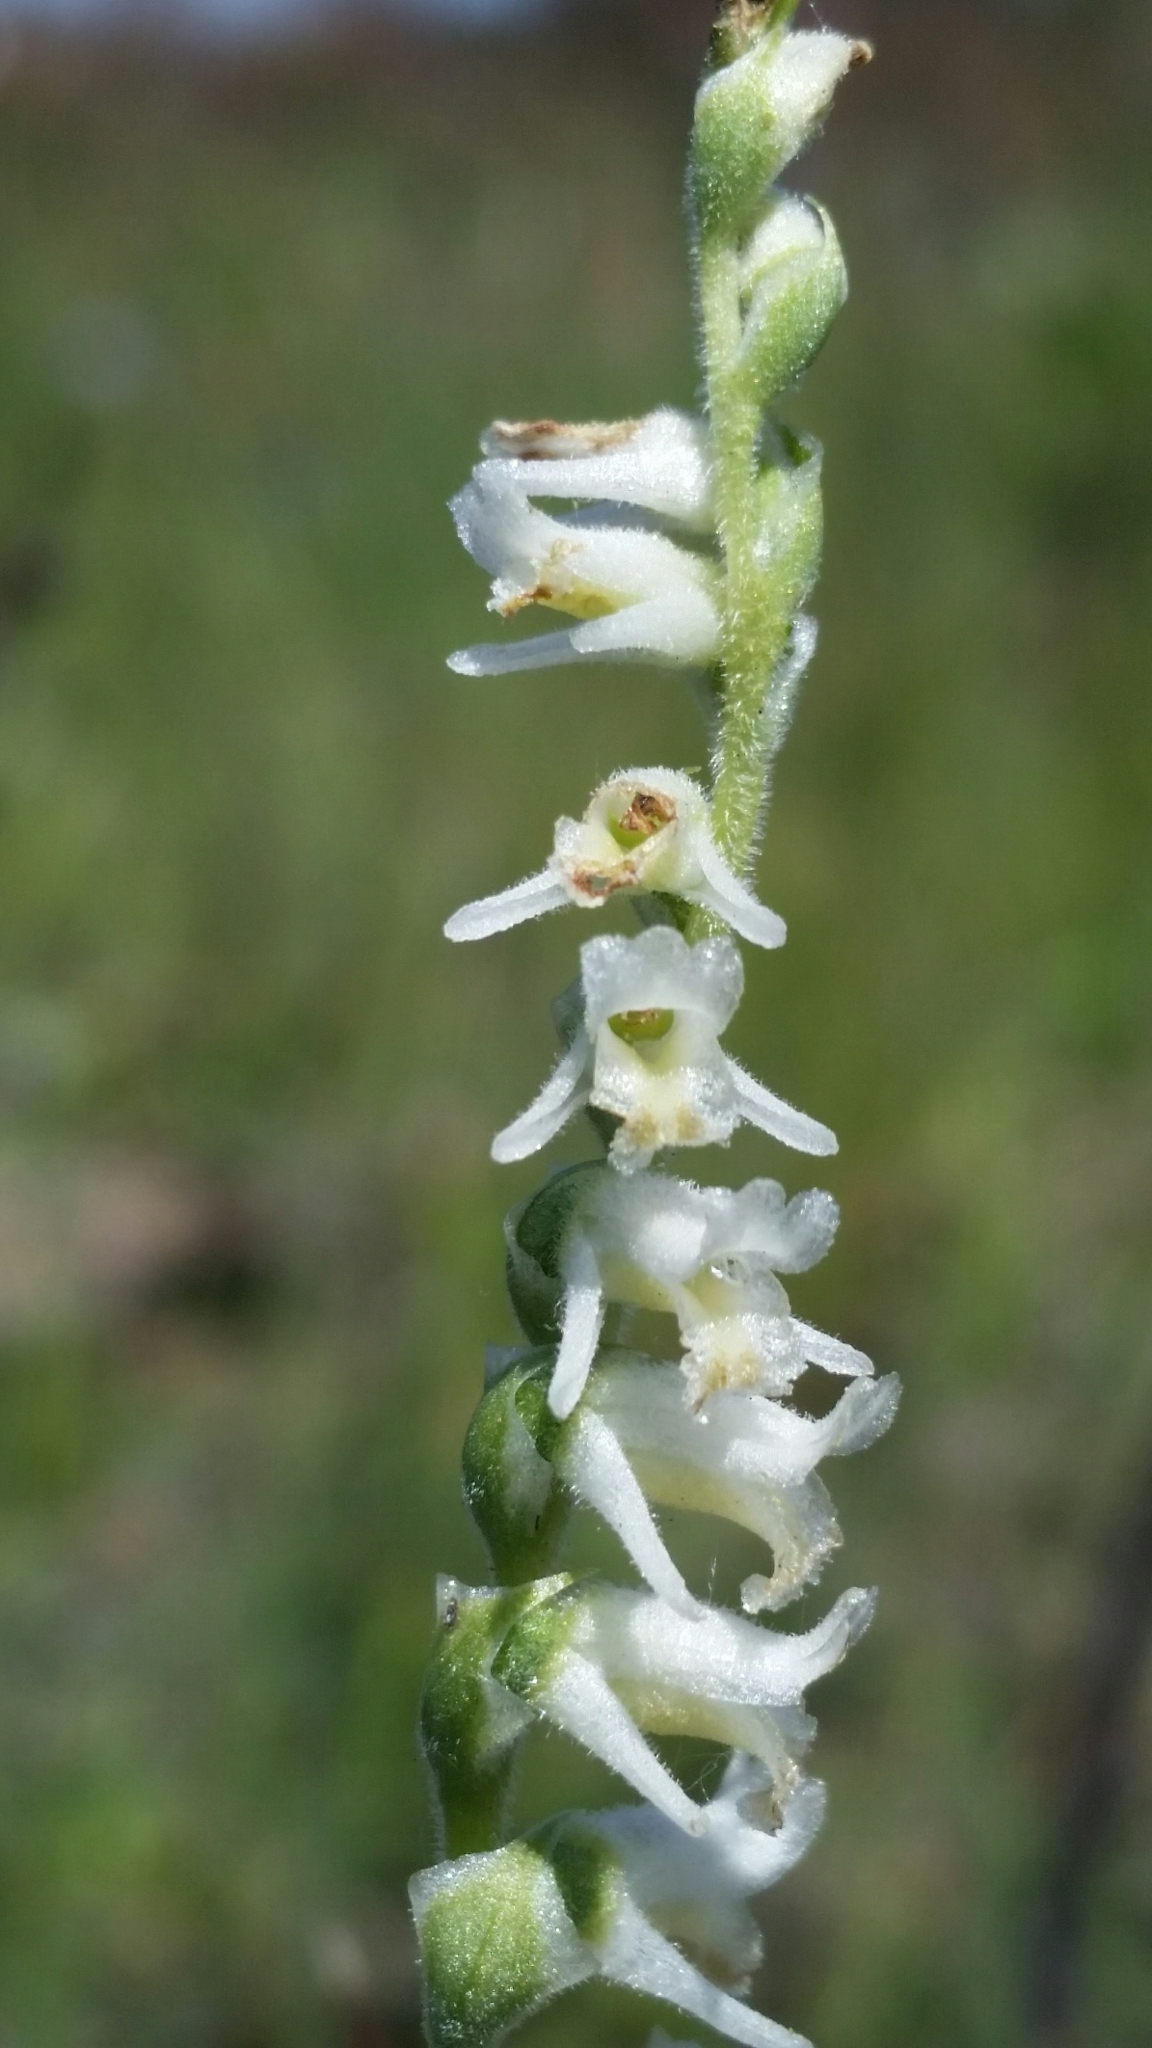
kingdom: Plantae
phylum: Tracheophyta
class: Liliopsida
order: Asparagales
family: Orchidaceae
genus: Spiranthes
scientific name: Spiranthes vernalis
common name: Spring ladies'-tresses
